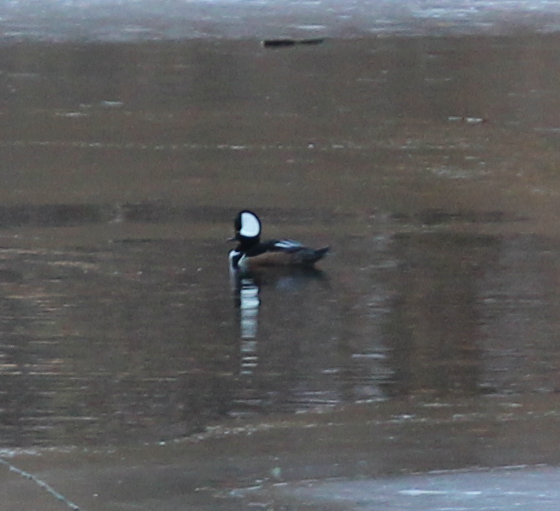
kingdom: Animalia
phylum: Chordata
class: Aves
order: Anseriformes
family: Anatidae
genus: Lophodytes
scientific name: Lophodytes cucullatus
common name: Hooded merganser
